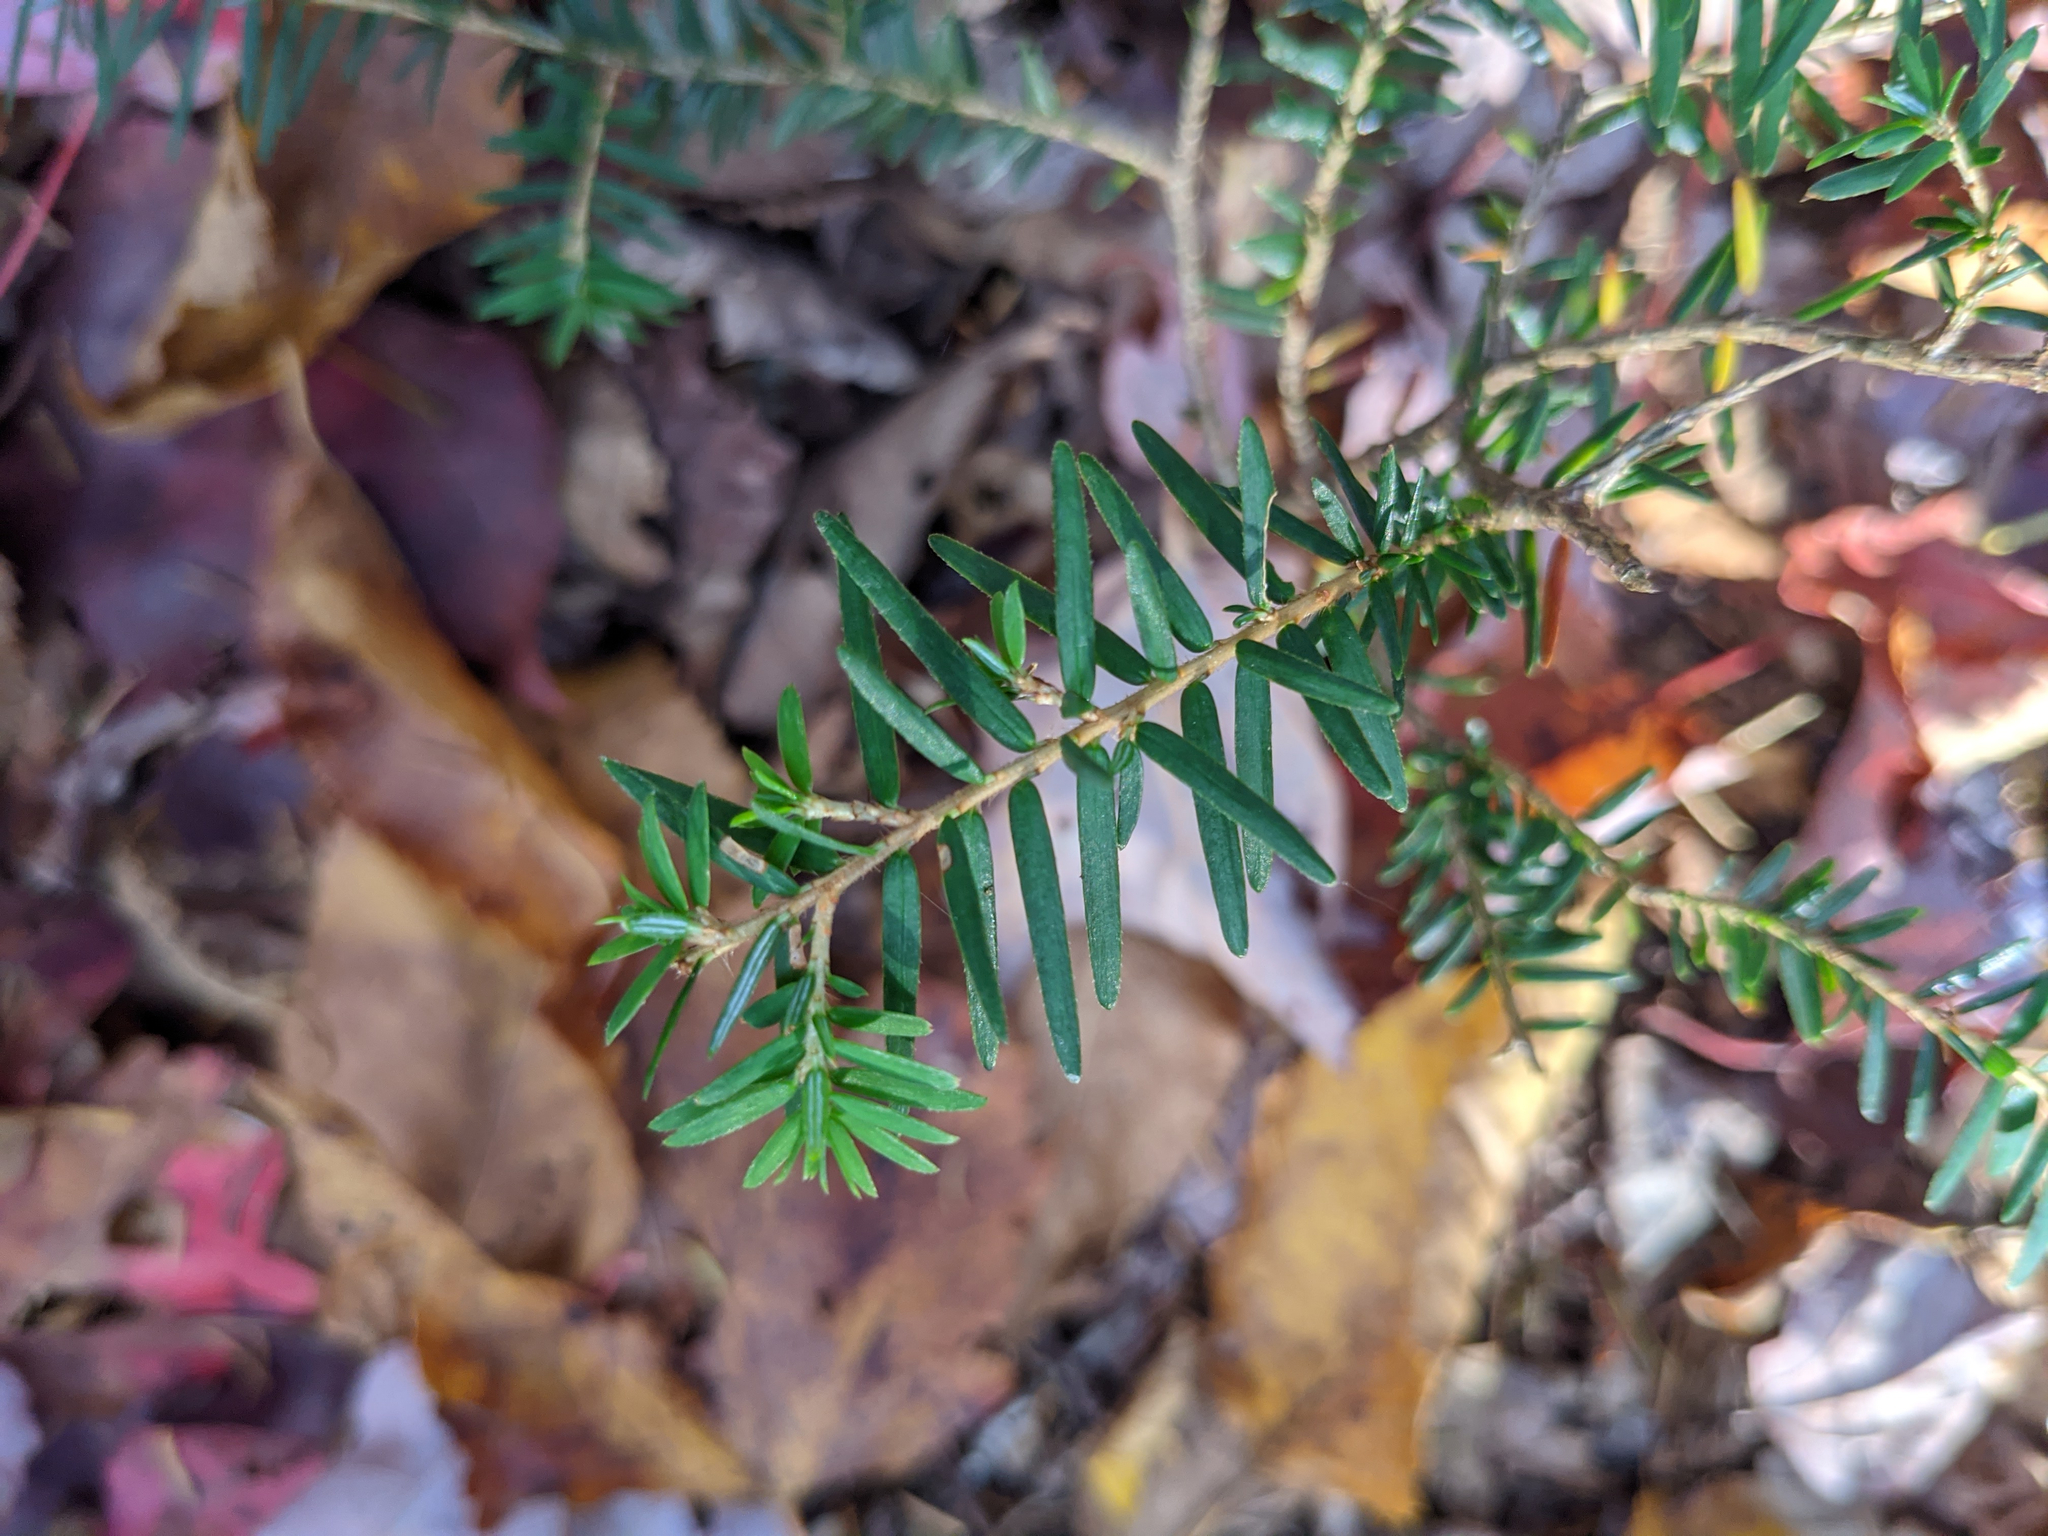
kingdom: Plantae
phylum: Tracheophyta
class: Pinopsida
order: Pinales
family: Pinaceae
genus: Tsuga
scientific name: Tsuga canadensis
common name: Eastern hemlock
